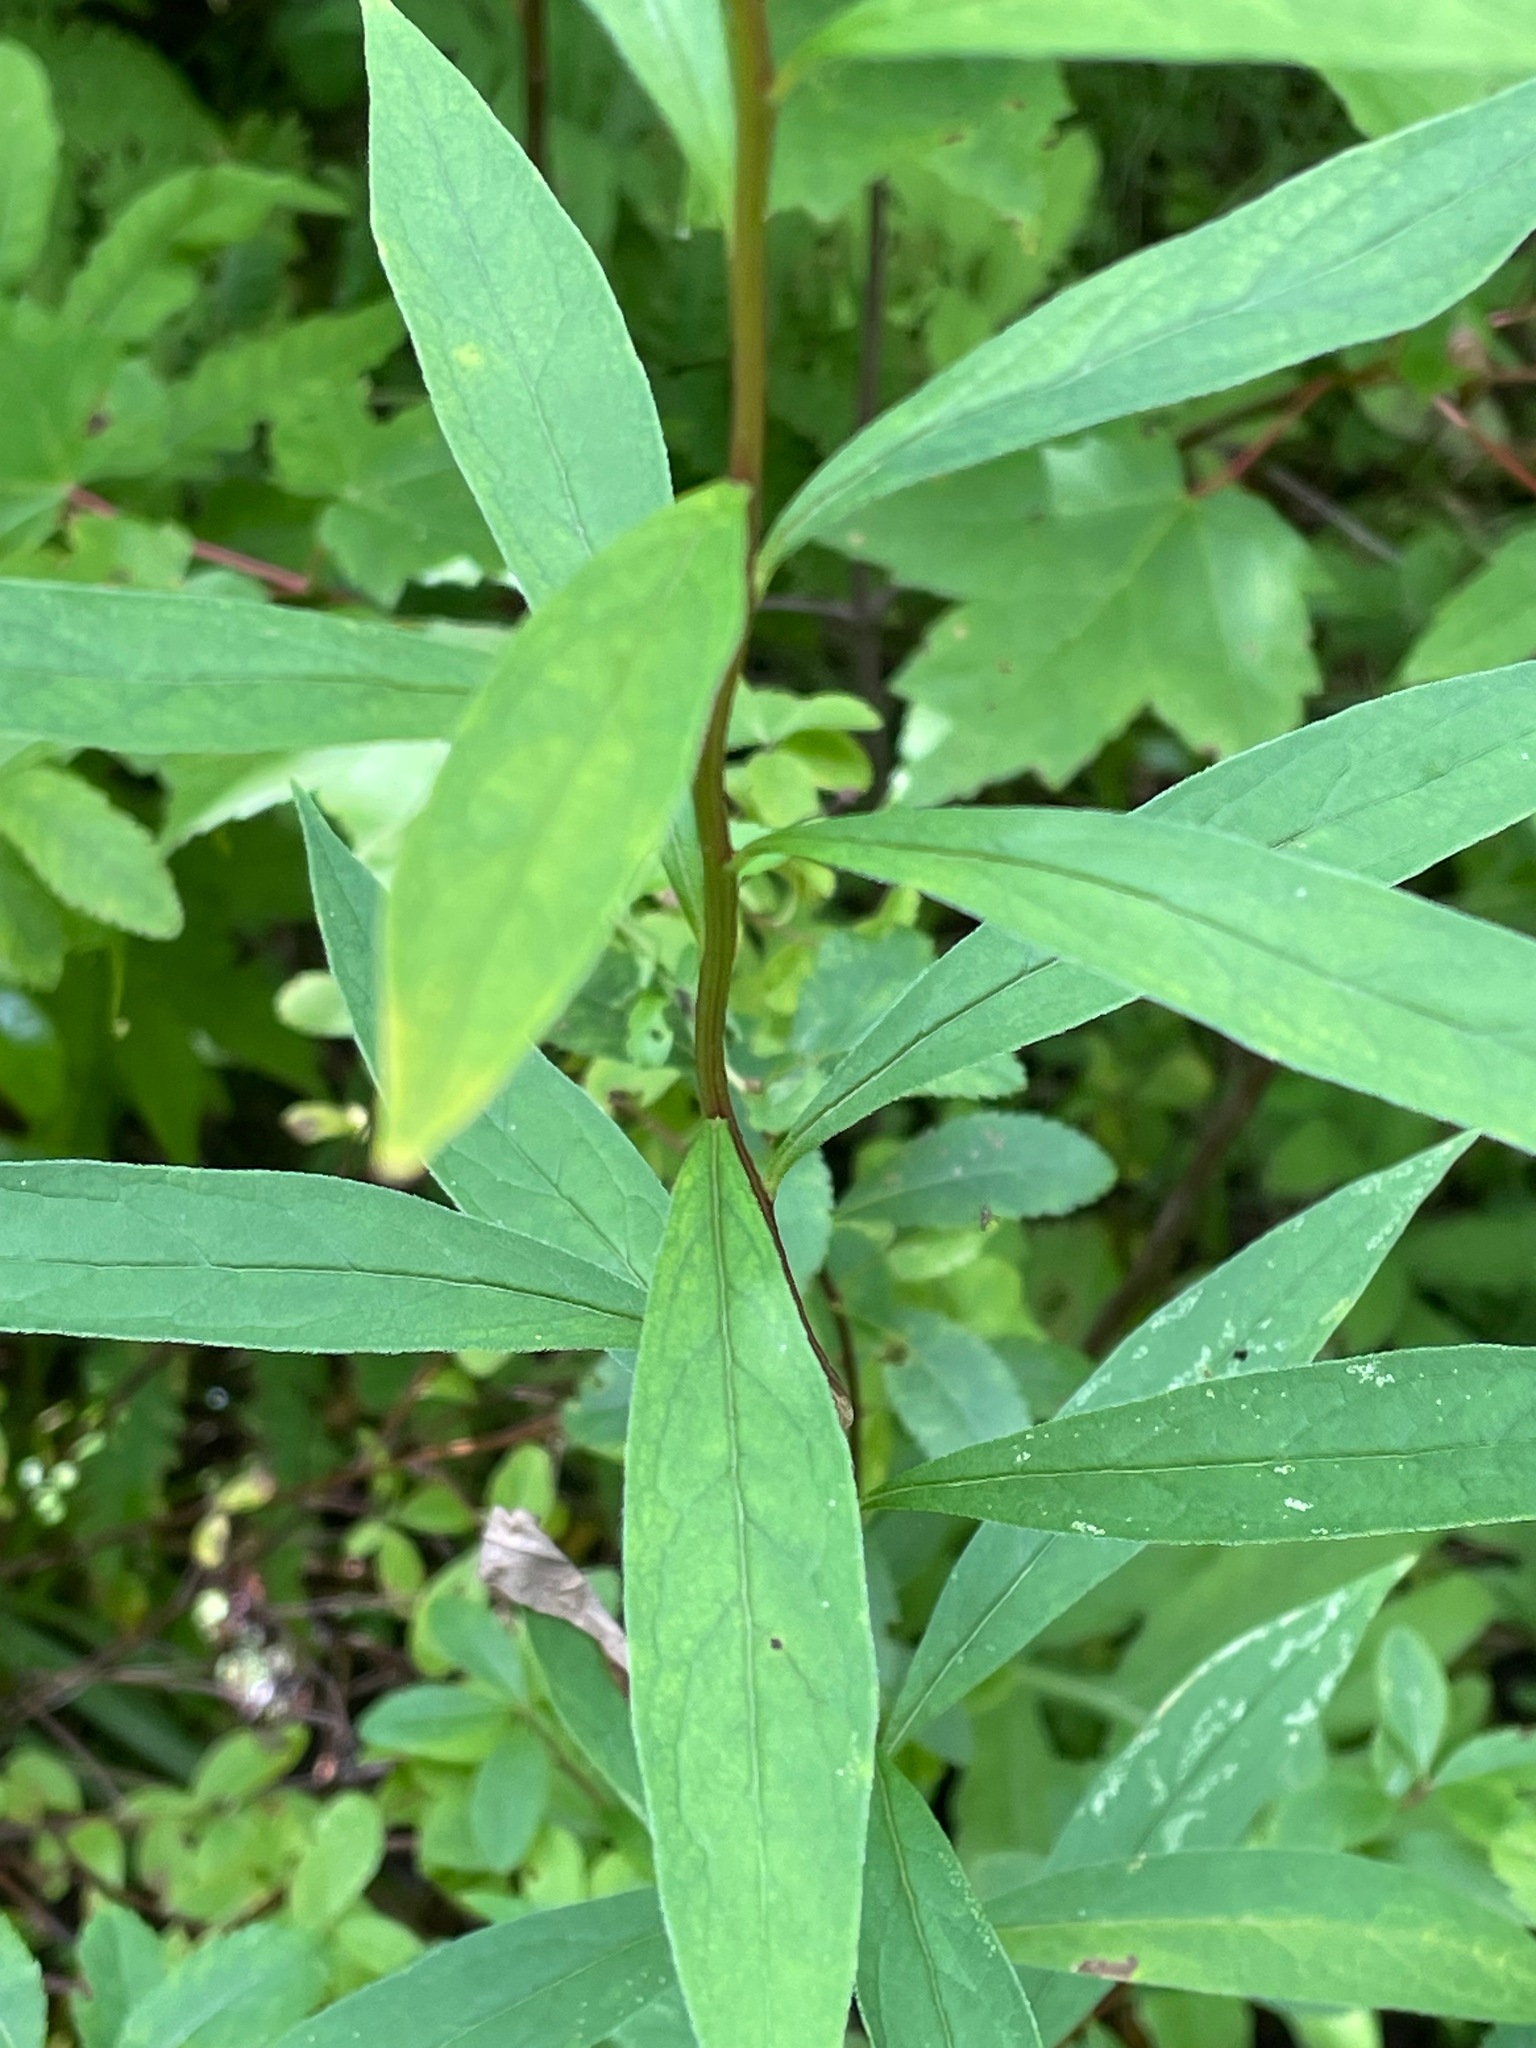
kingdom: Plantae
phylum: Tracheophyta
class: Magnoliopsida
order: Asterales
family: Asteraceae
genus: Doellingeria
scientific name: Doellingeria umbellata
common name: Flat-top white aster
